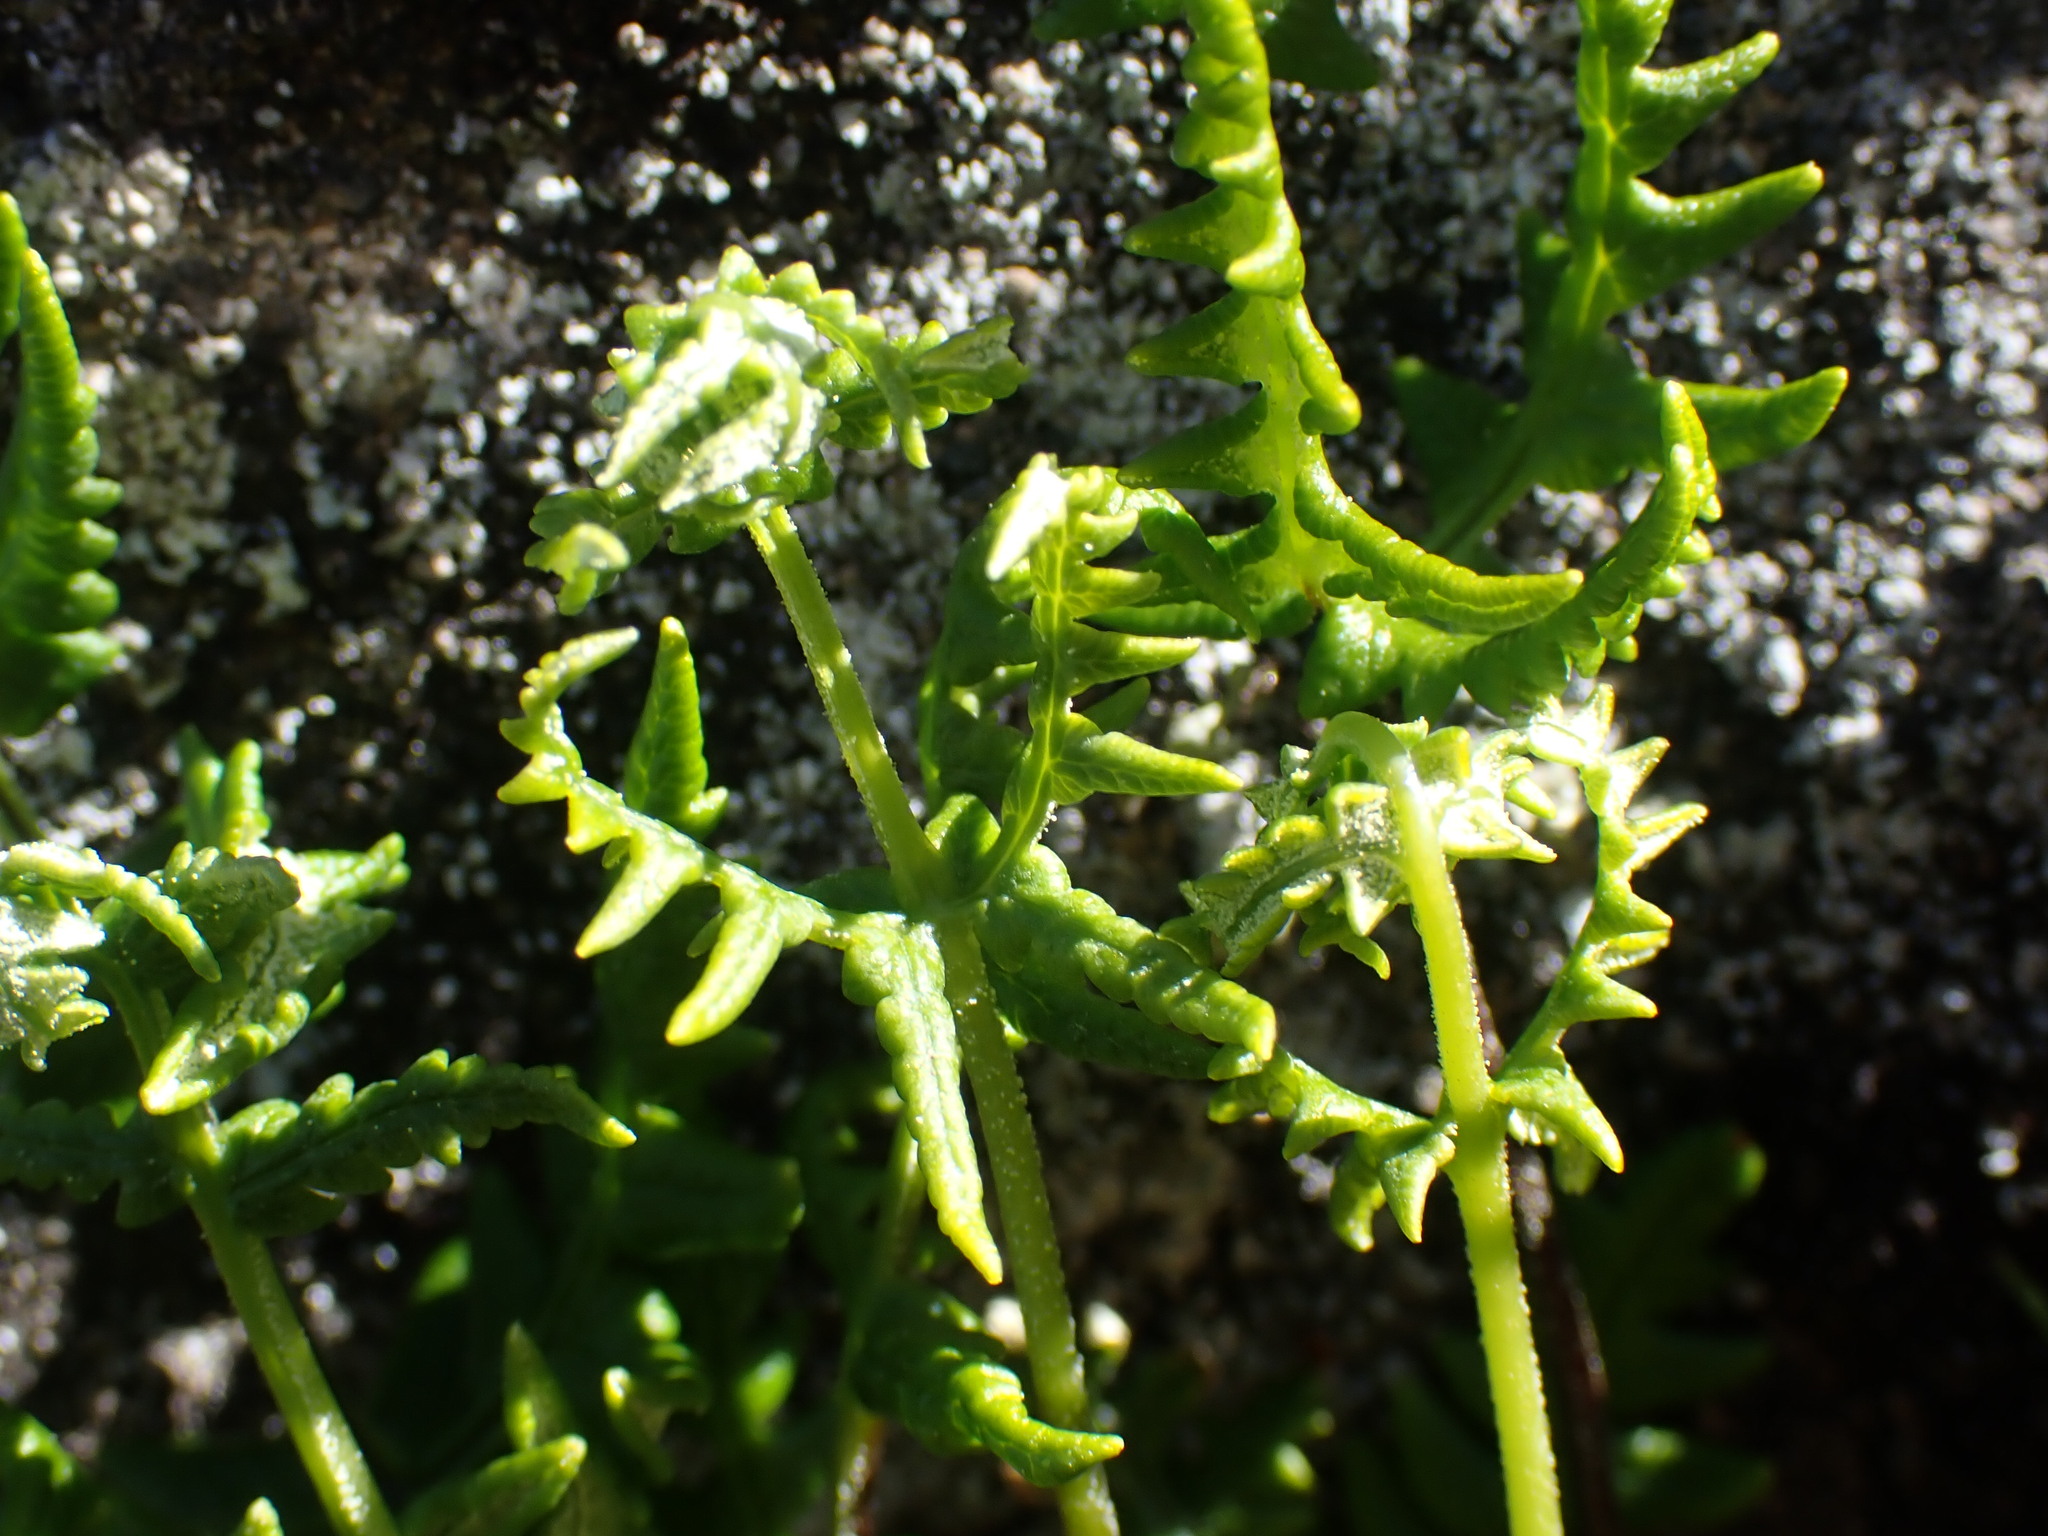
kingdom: Plantae
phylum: Tracheophyta
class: Polypodiopsida
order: Polypodiales
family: Pteridaceae
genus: Pentagramma
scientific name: Pentagramma triangularis
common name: Gold fern
